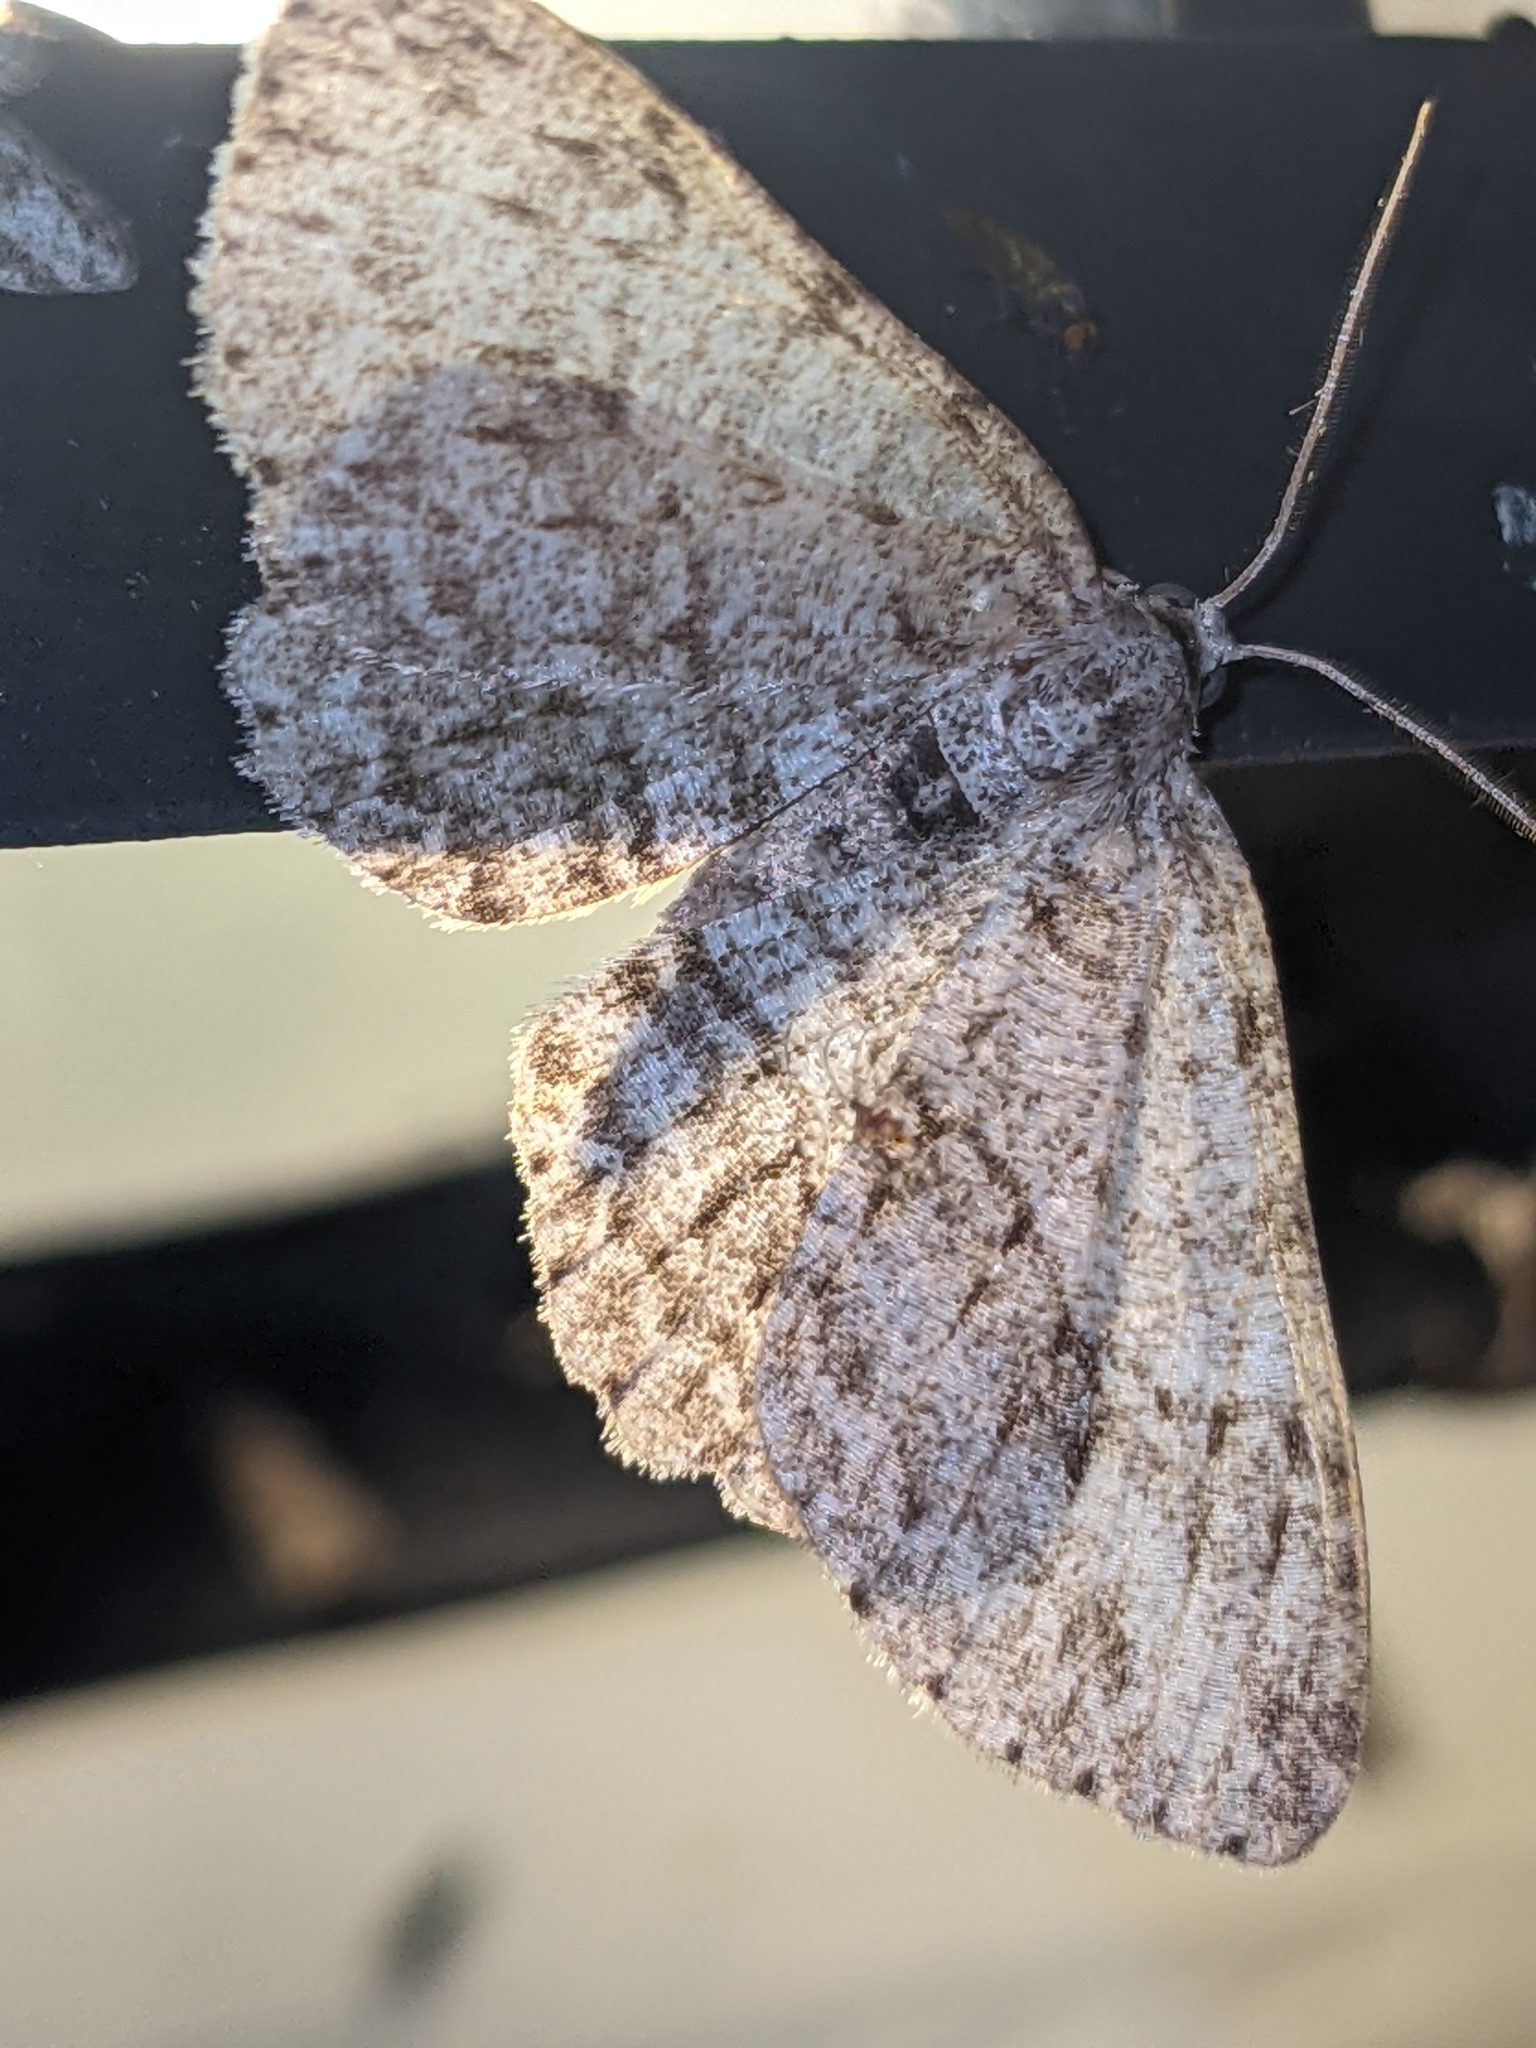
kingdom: Animalia
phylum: Arthropoda
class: Insecta
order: Lepidoptera
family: Geometridae
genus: Ectropis
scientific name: Ectropis crepuscularia
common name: Engrailed
